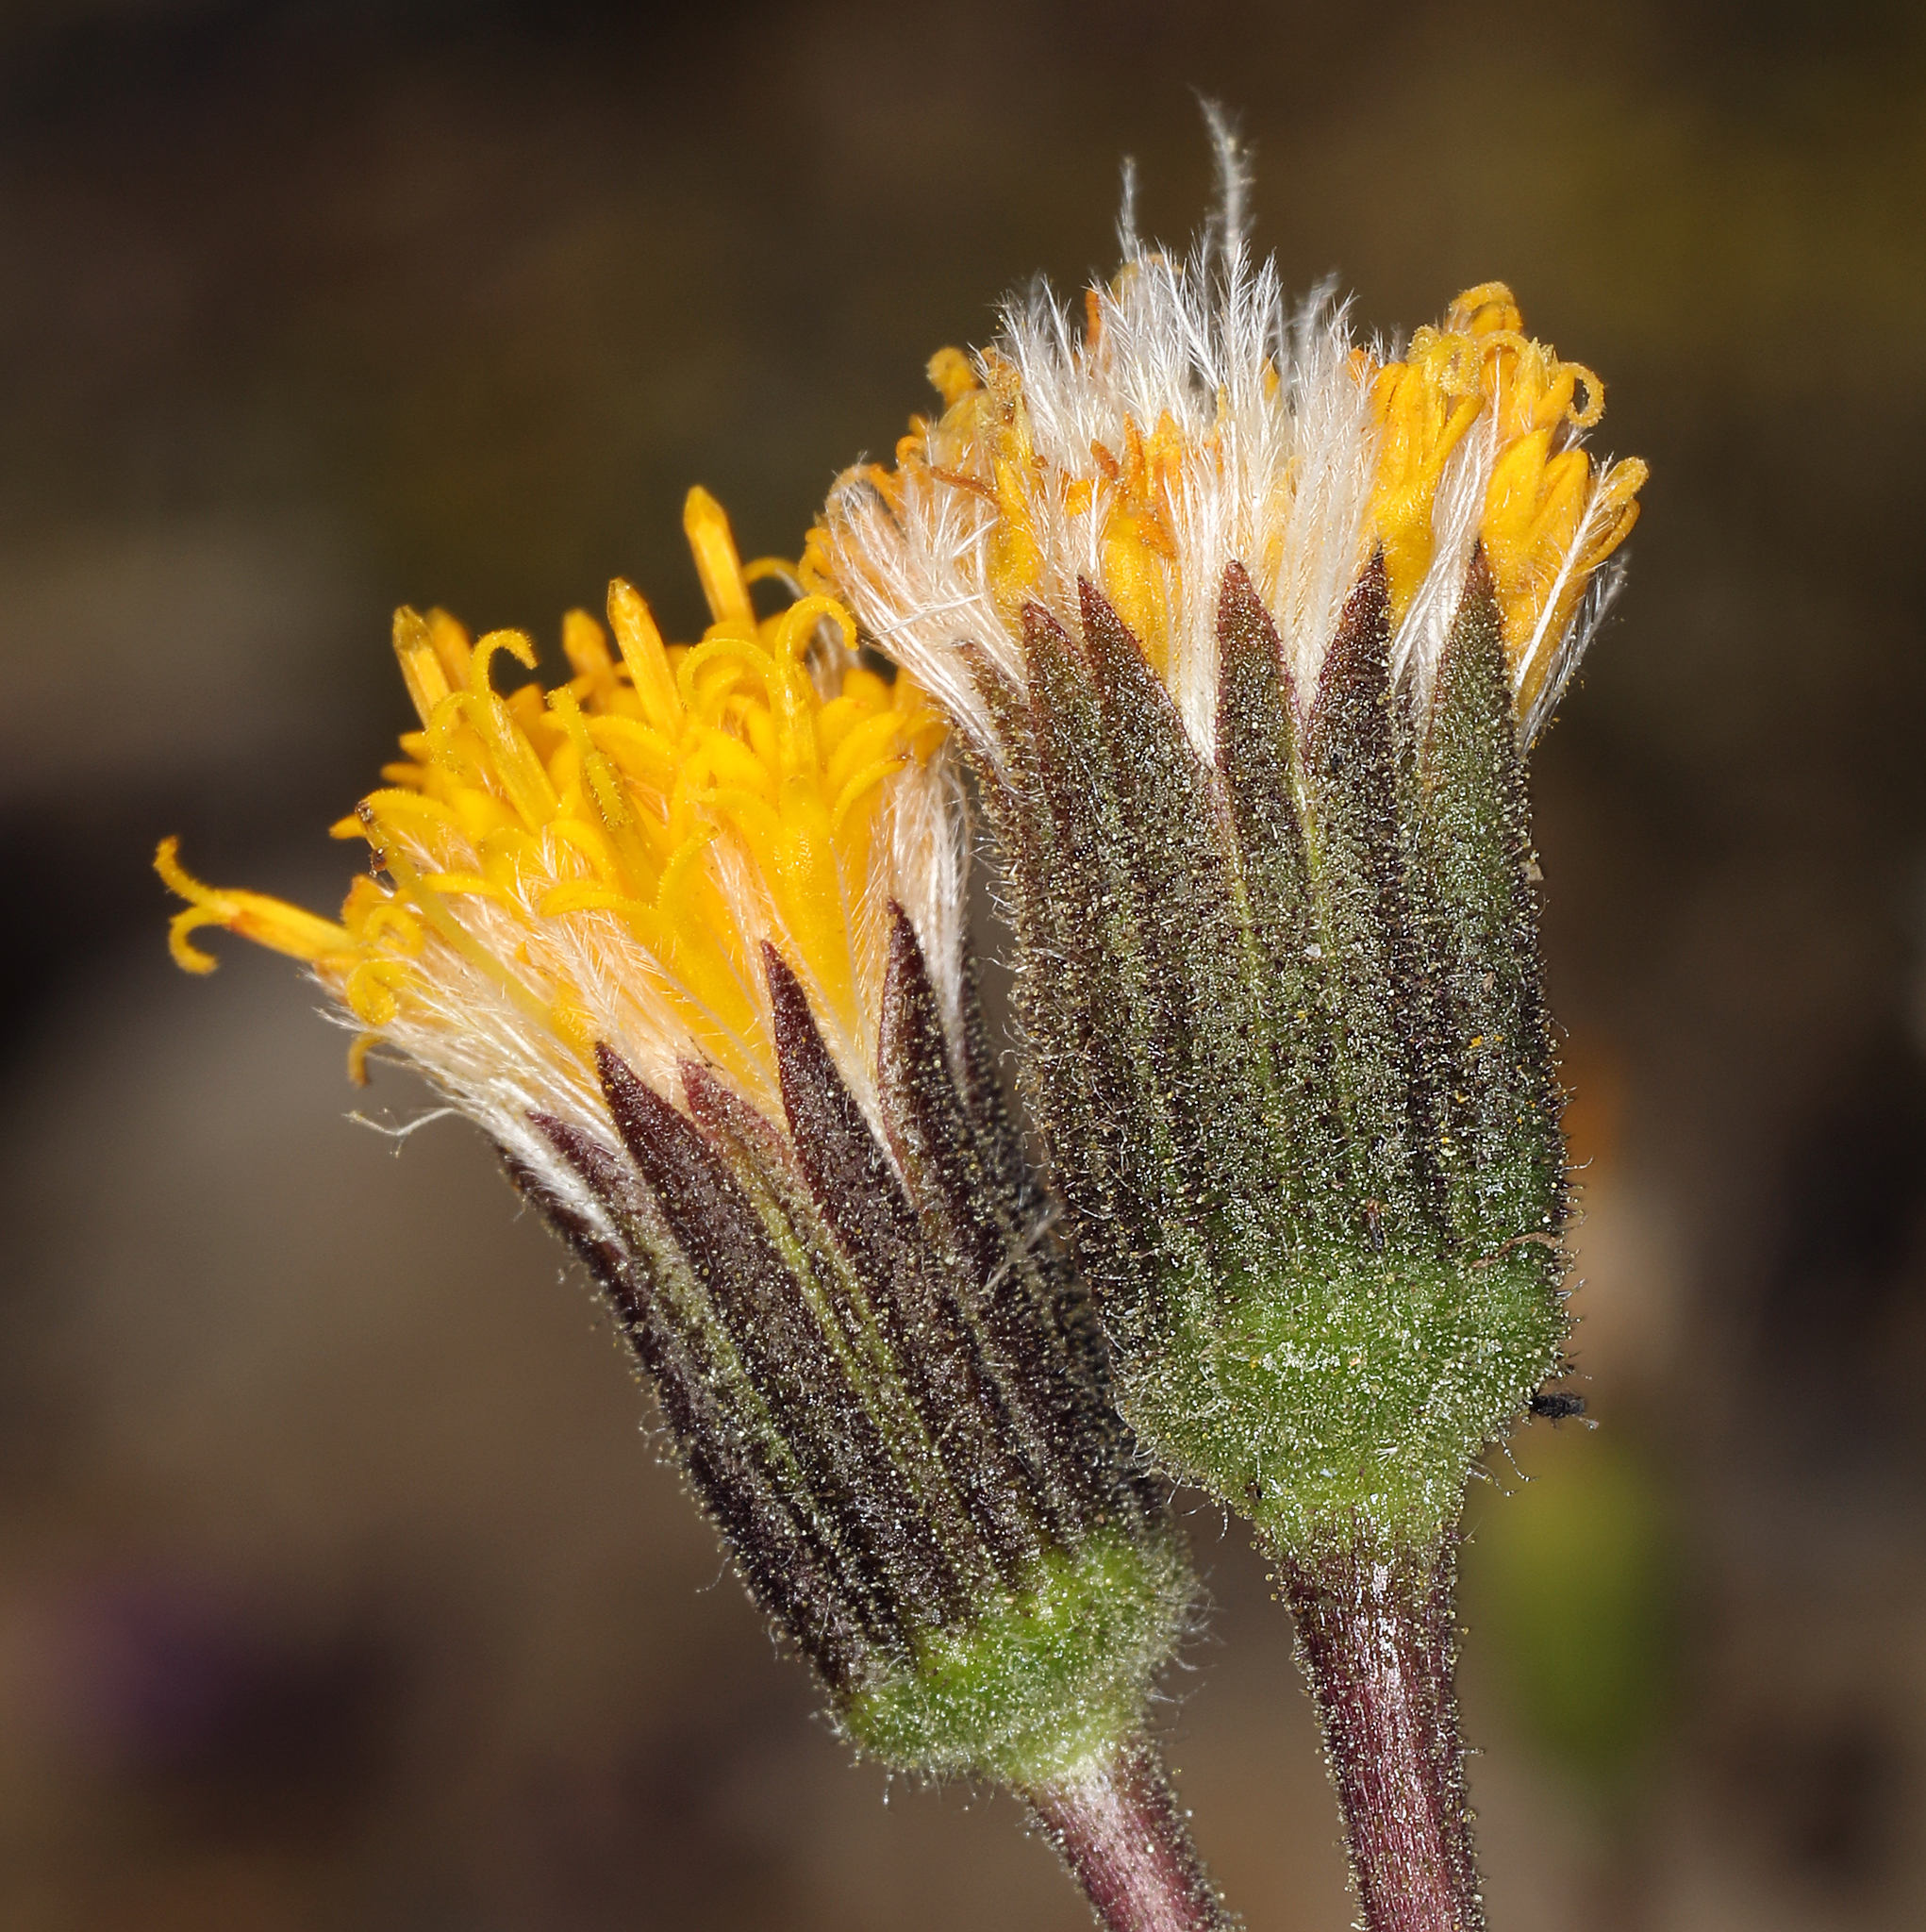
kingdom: Plantae
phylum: Tracheophyta
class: Magnoliopsida
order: Asterales
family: Asteraceae
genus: Raillardella
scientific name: Raillardella scaposa
